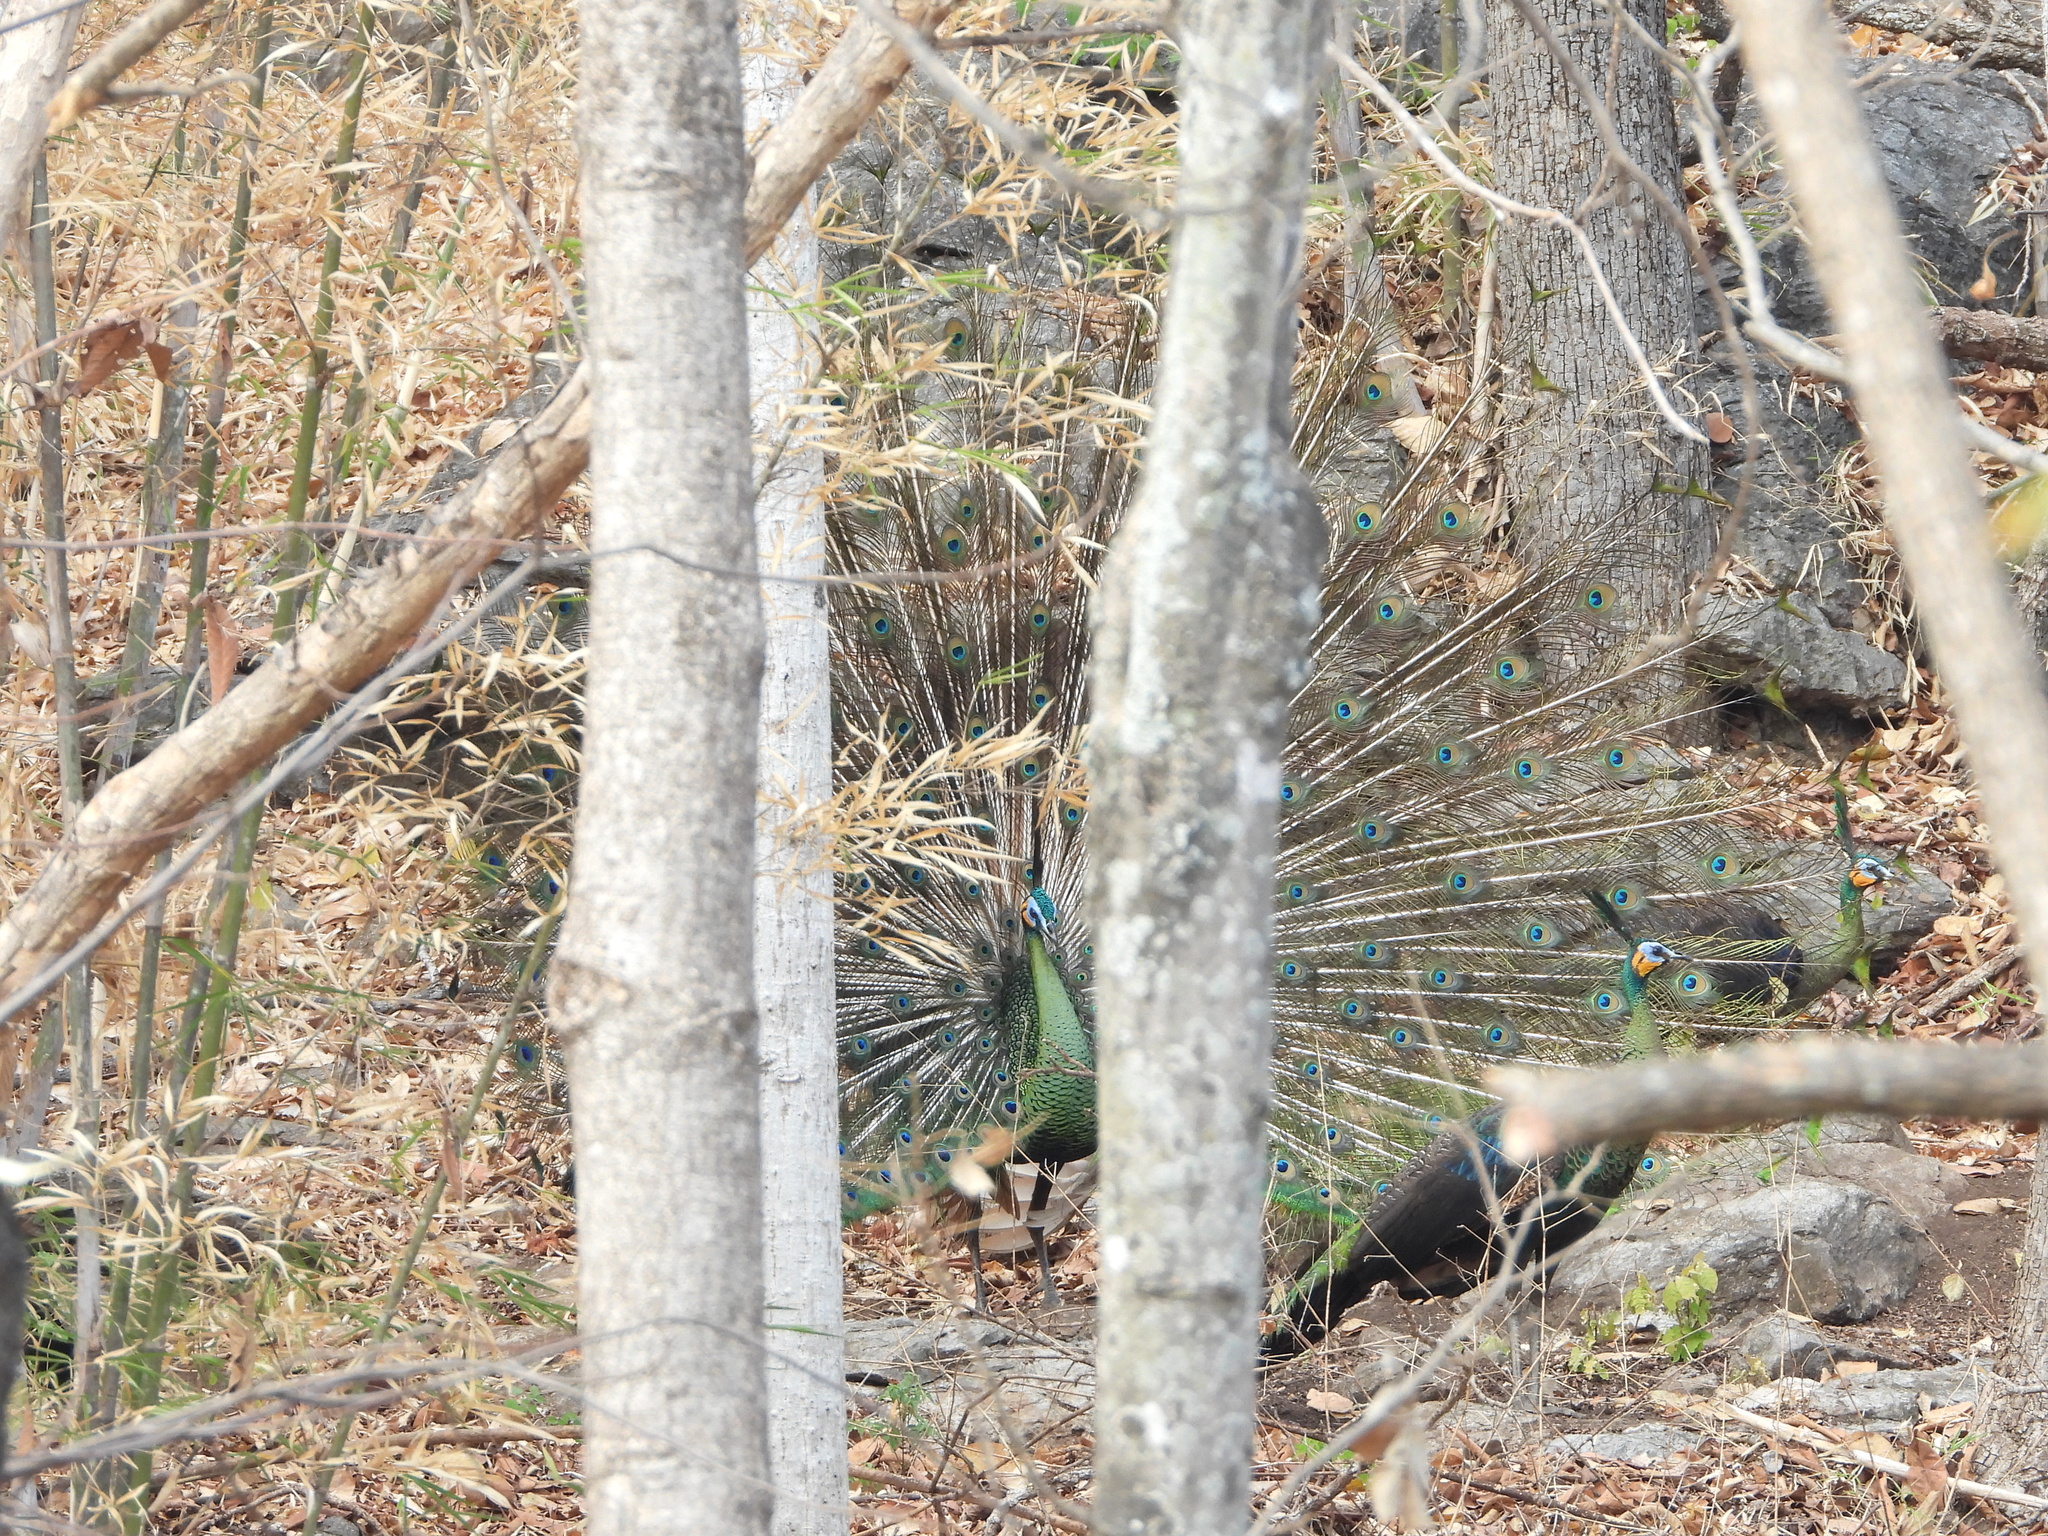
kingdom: Animalia
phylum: Chordata
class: Aves
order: Galliformes
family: Phasianidae
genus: Pavo
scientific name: Pavo muticus
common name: Green peafowl
